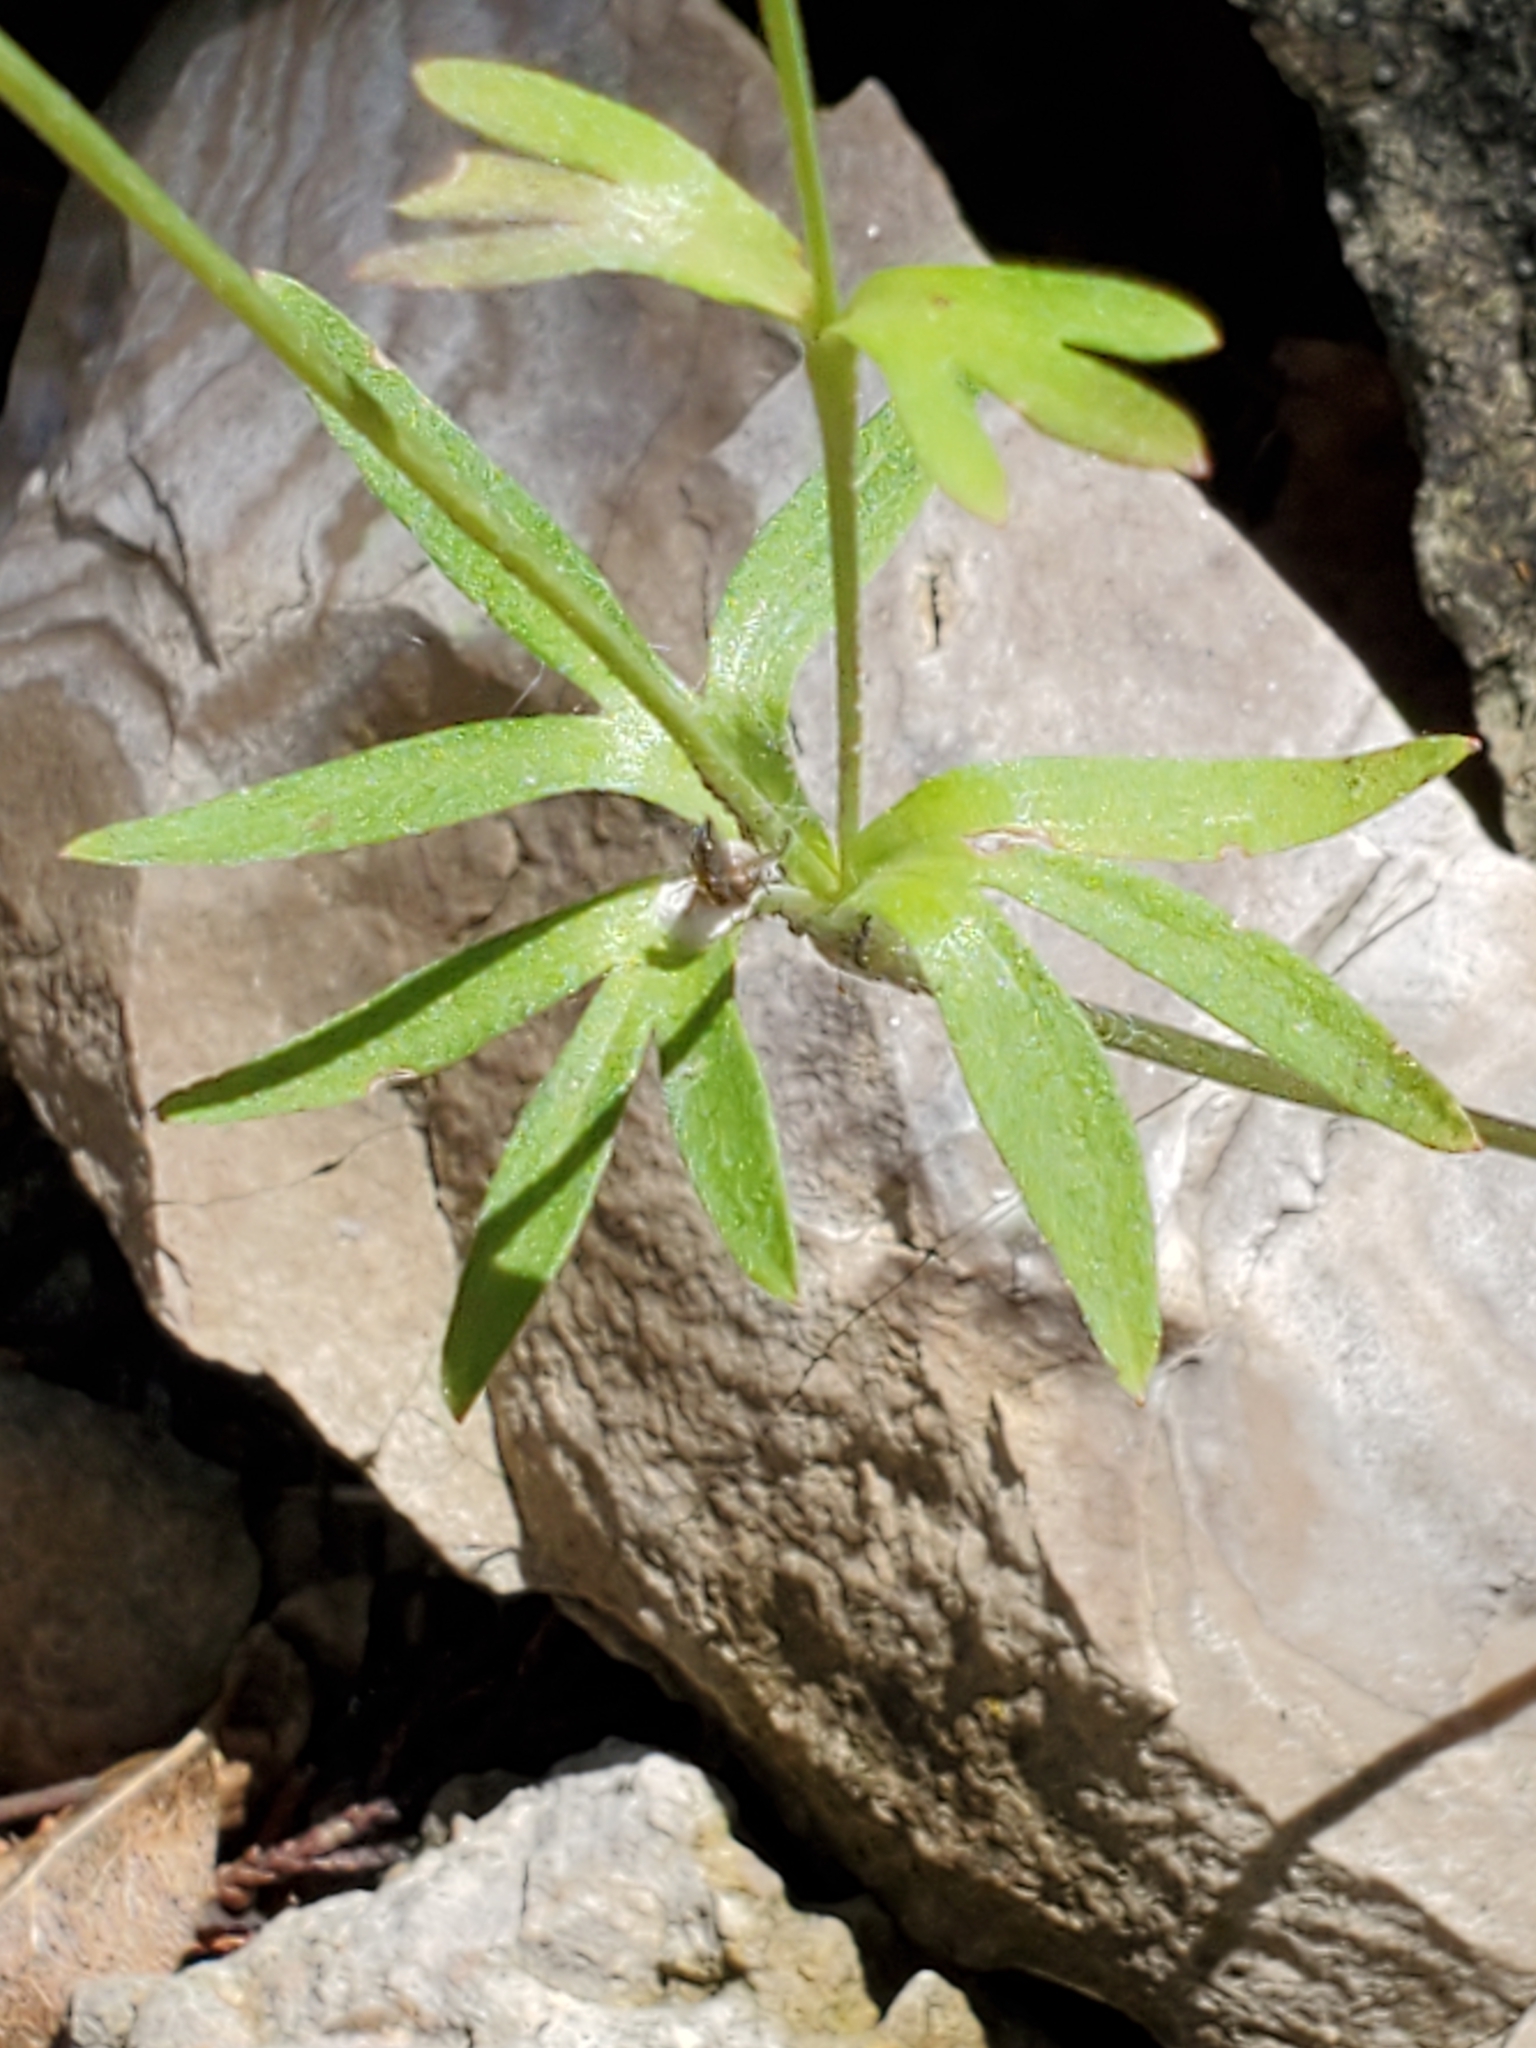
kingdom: Plantae
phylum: Tracheophyta
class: Magnoliopsida
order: Ranunculales
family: Ranunculaceae
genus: Anemone
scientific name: Anemone edwardsiana
